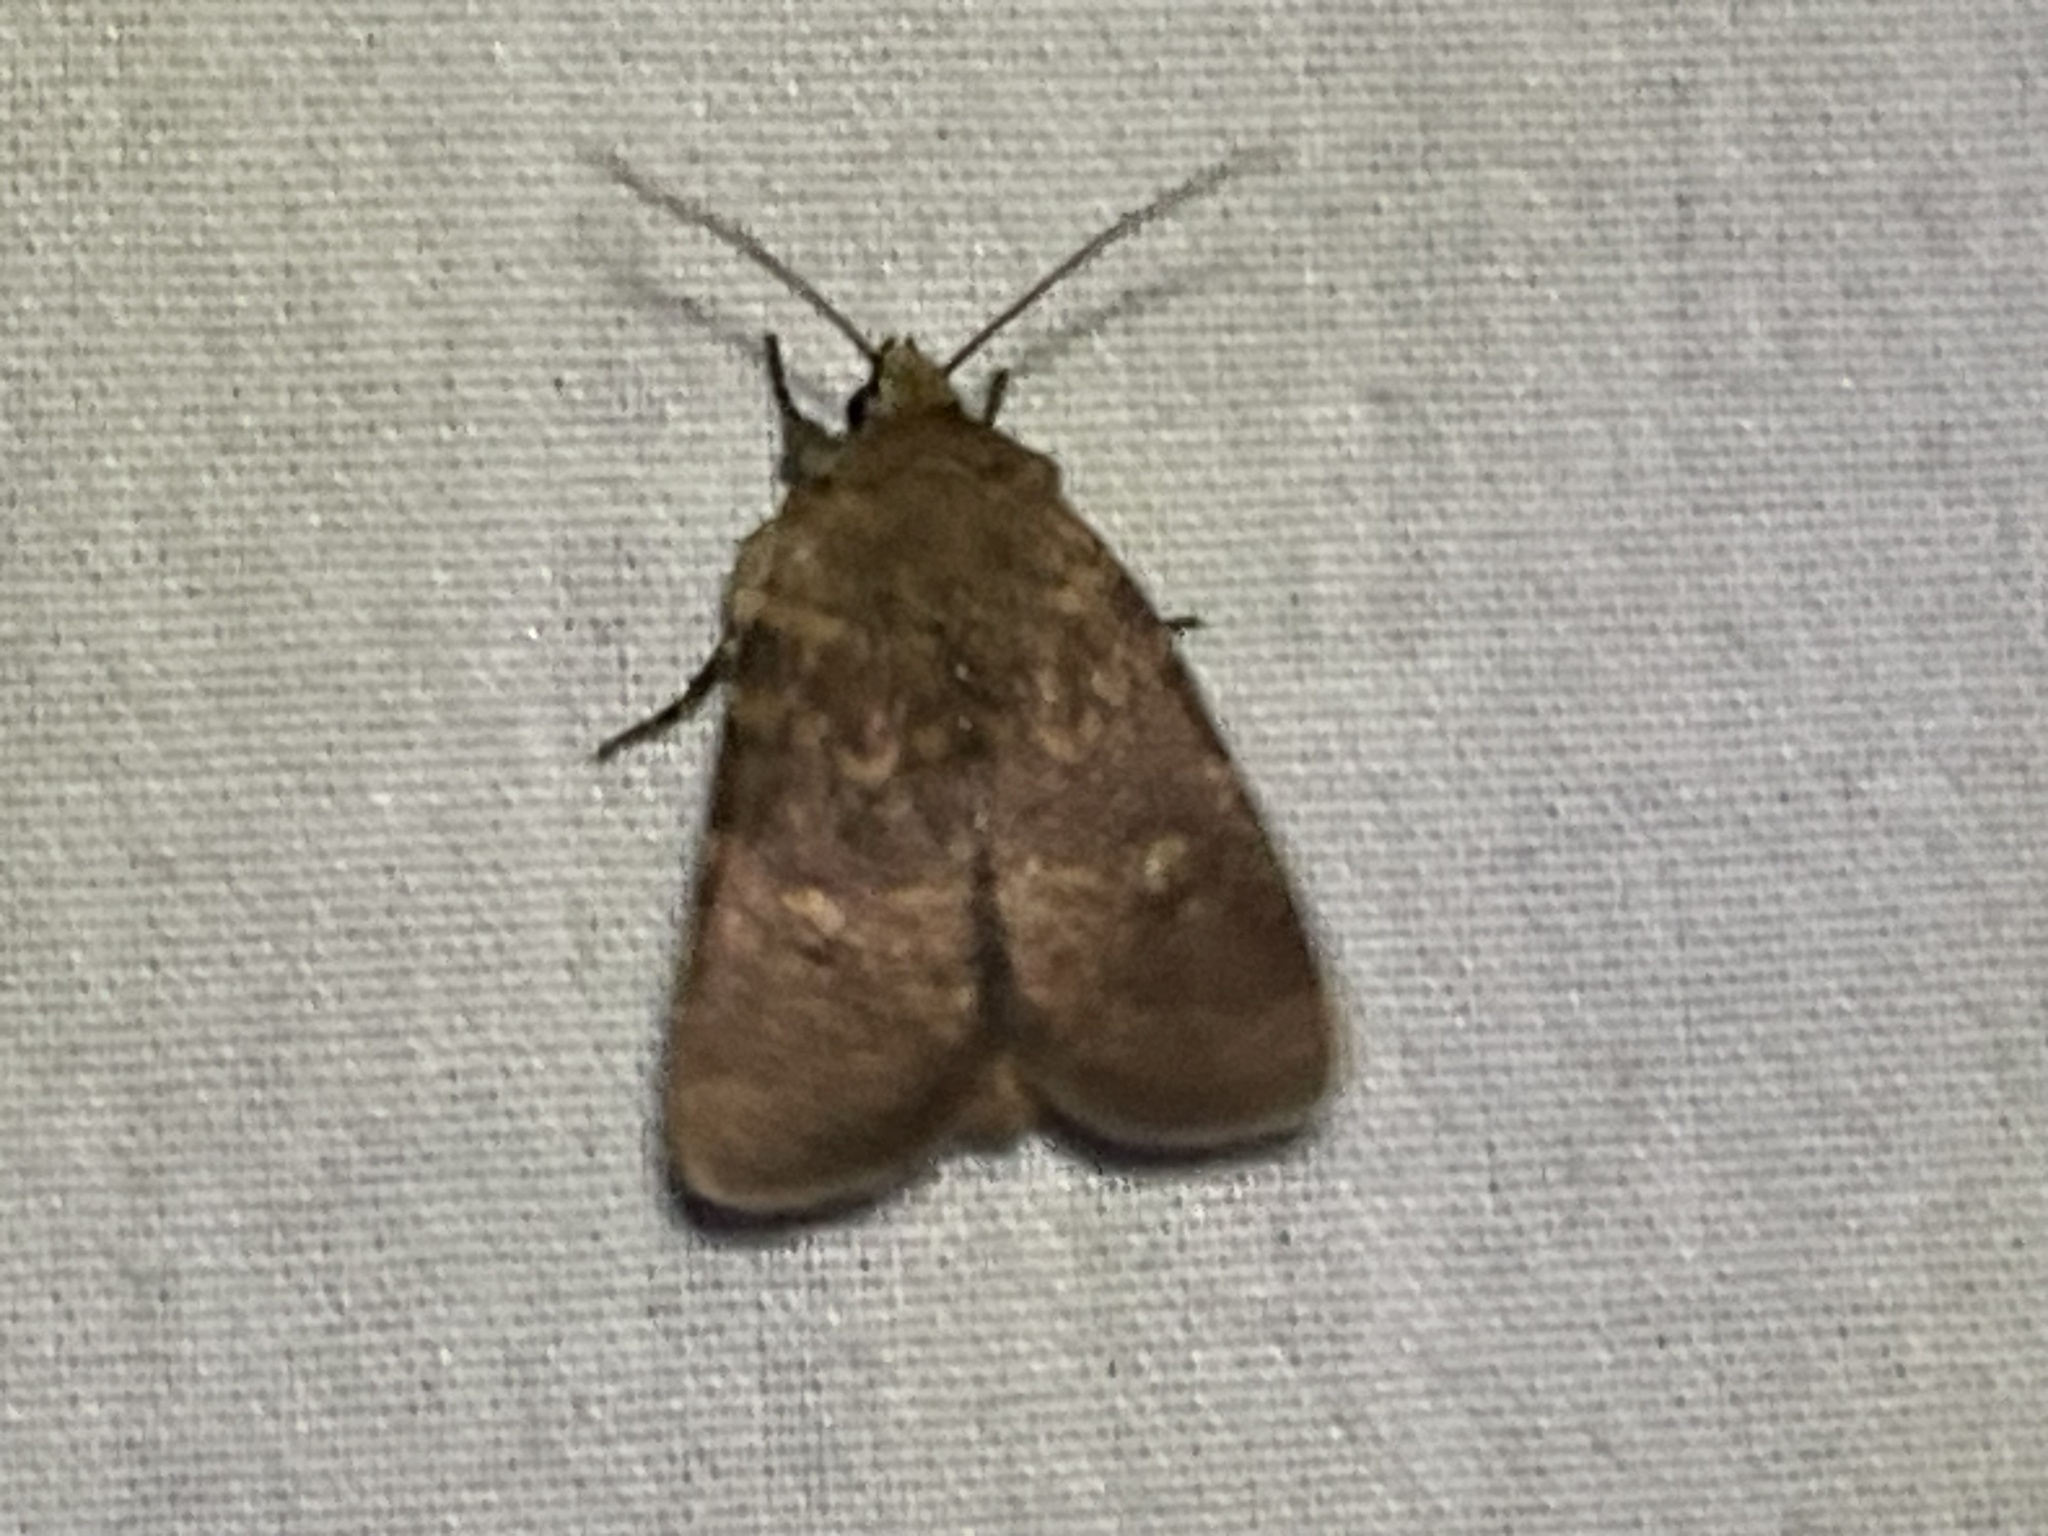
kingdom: Animalia
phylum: Arthropoda
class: Insecta
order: Lepidoptera
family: Noctuidae
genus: Homorthodes
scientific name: Homorthodes lindseyi
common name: Southern scurfy quaker
